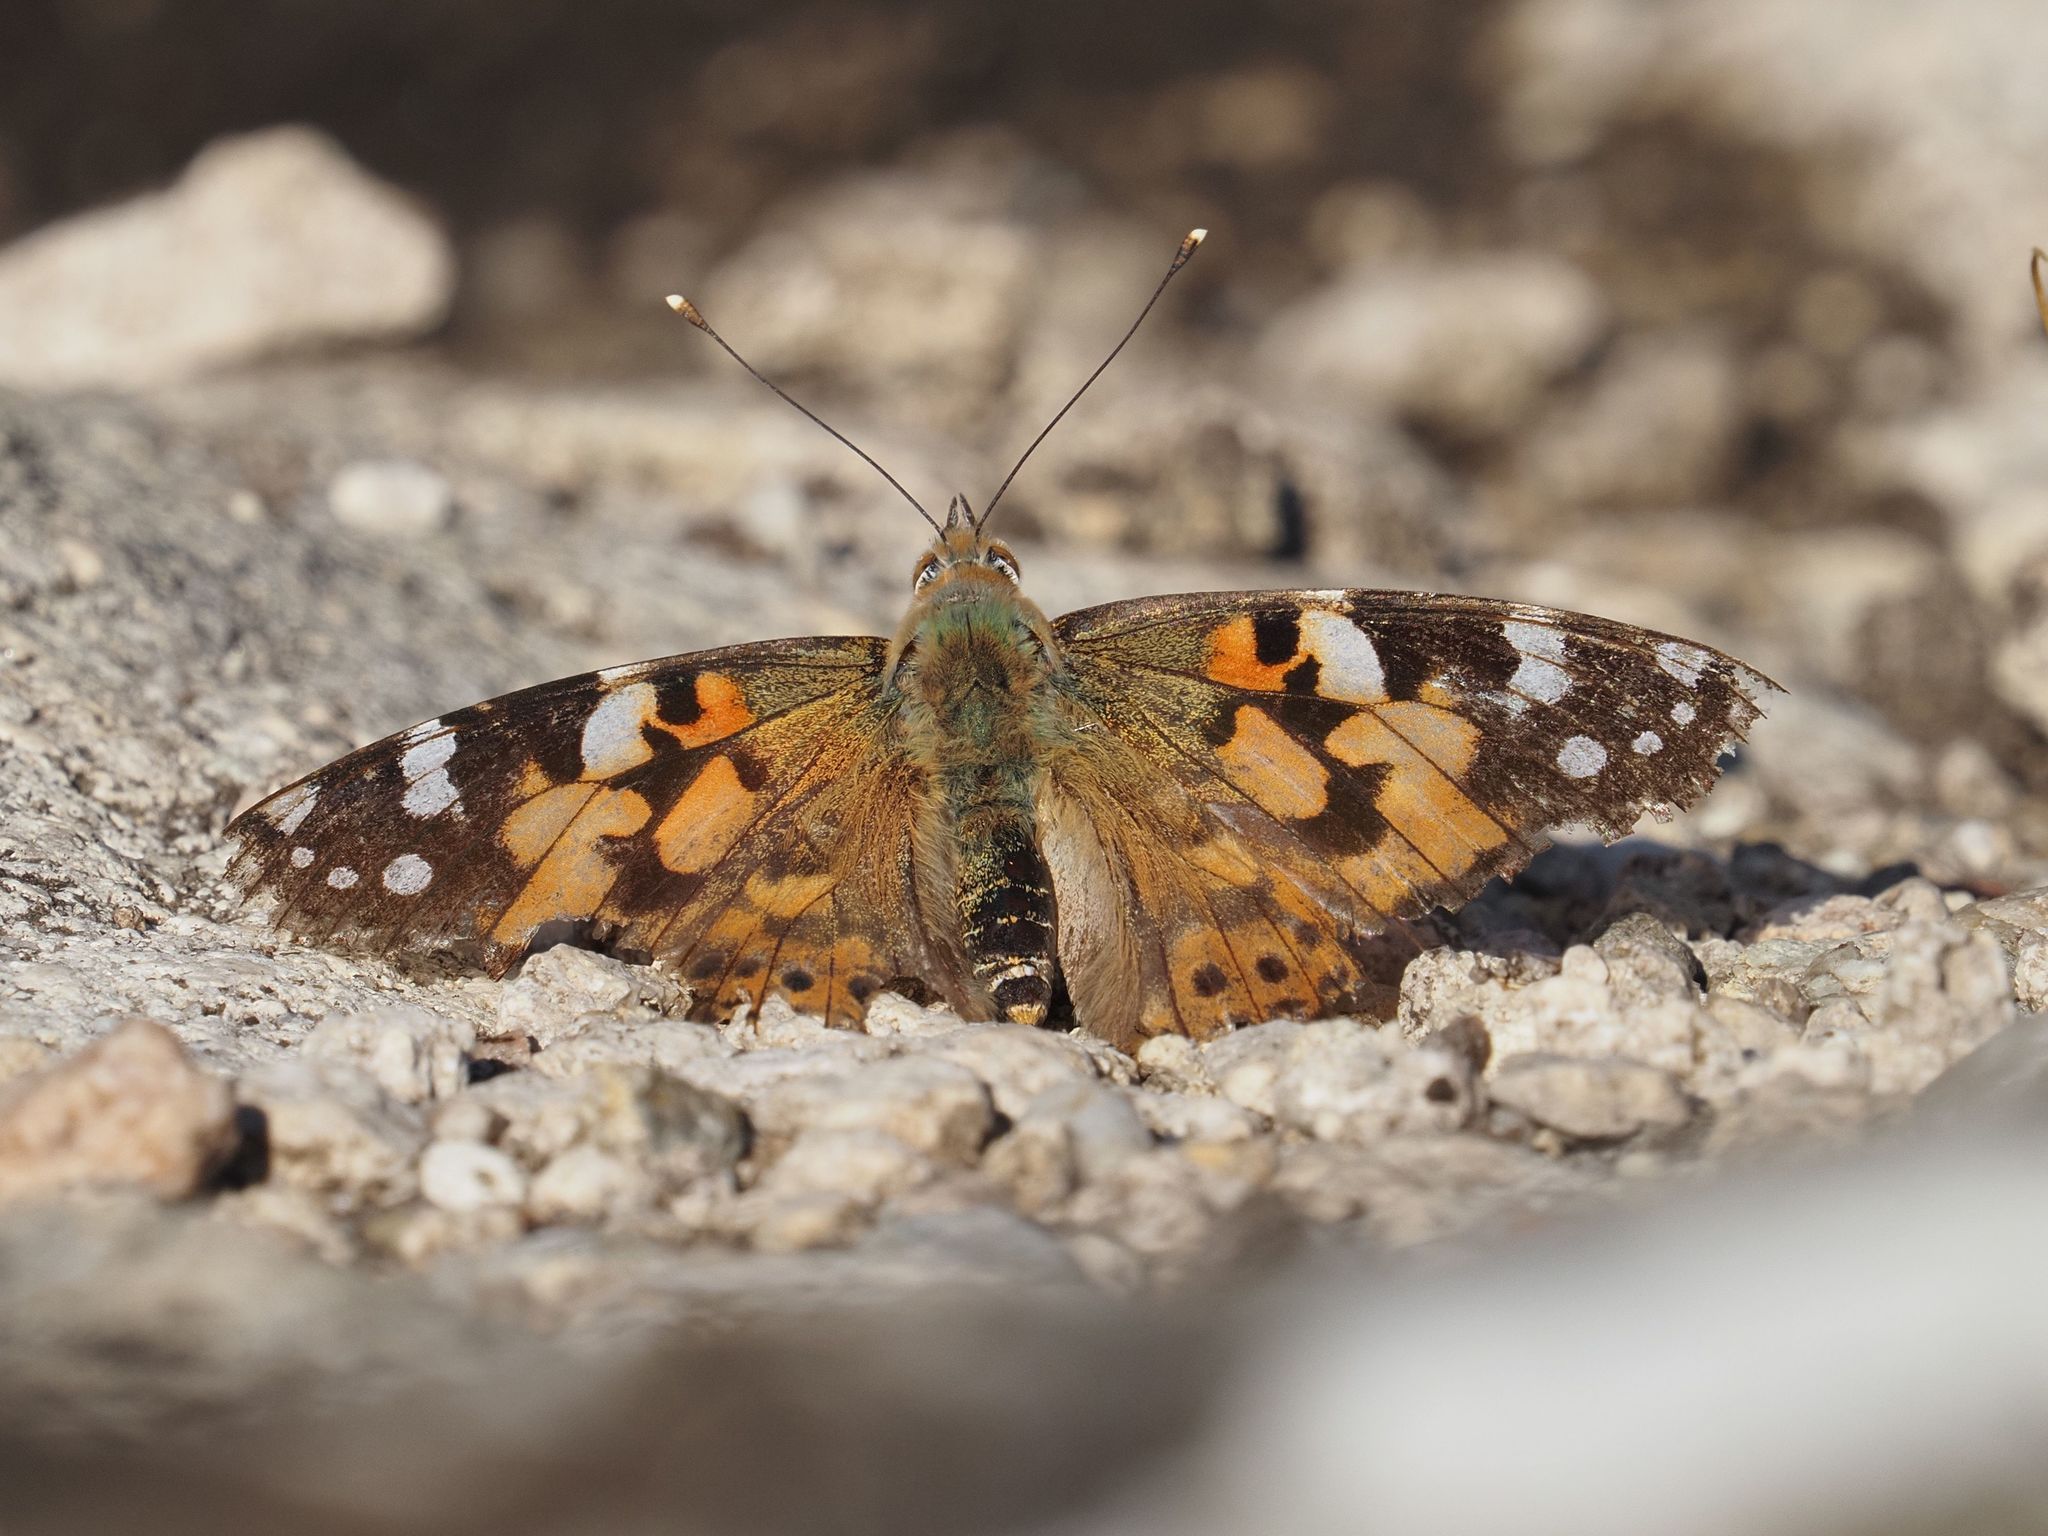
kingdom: Animalia
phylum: Arthropoda
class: Insecta
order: Lepidoptera
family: Nymphalidae
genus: Vanessa
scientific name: Vanessa cardui
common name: Painted lady
